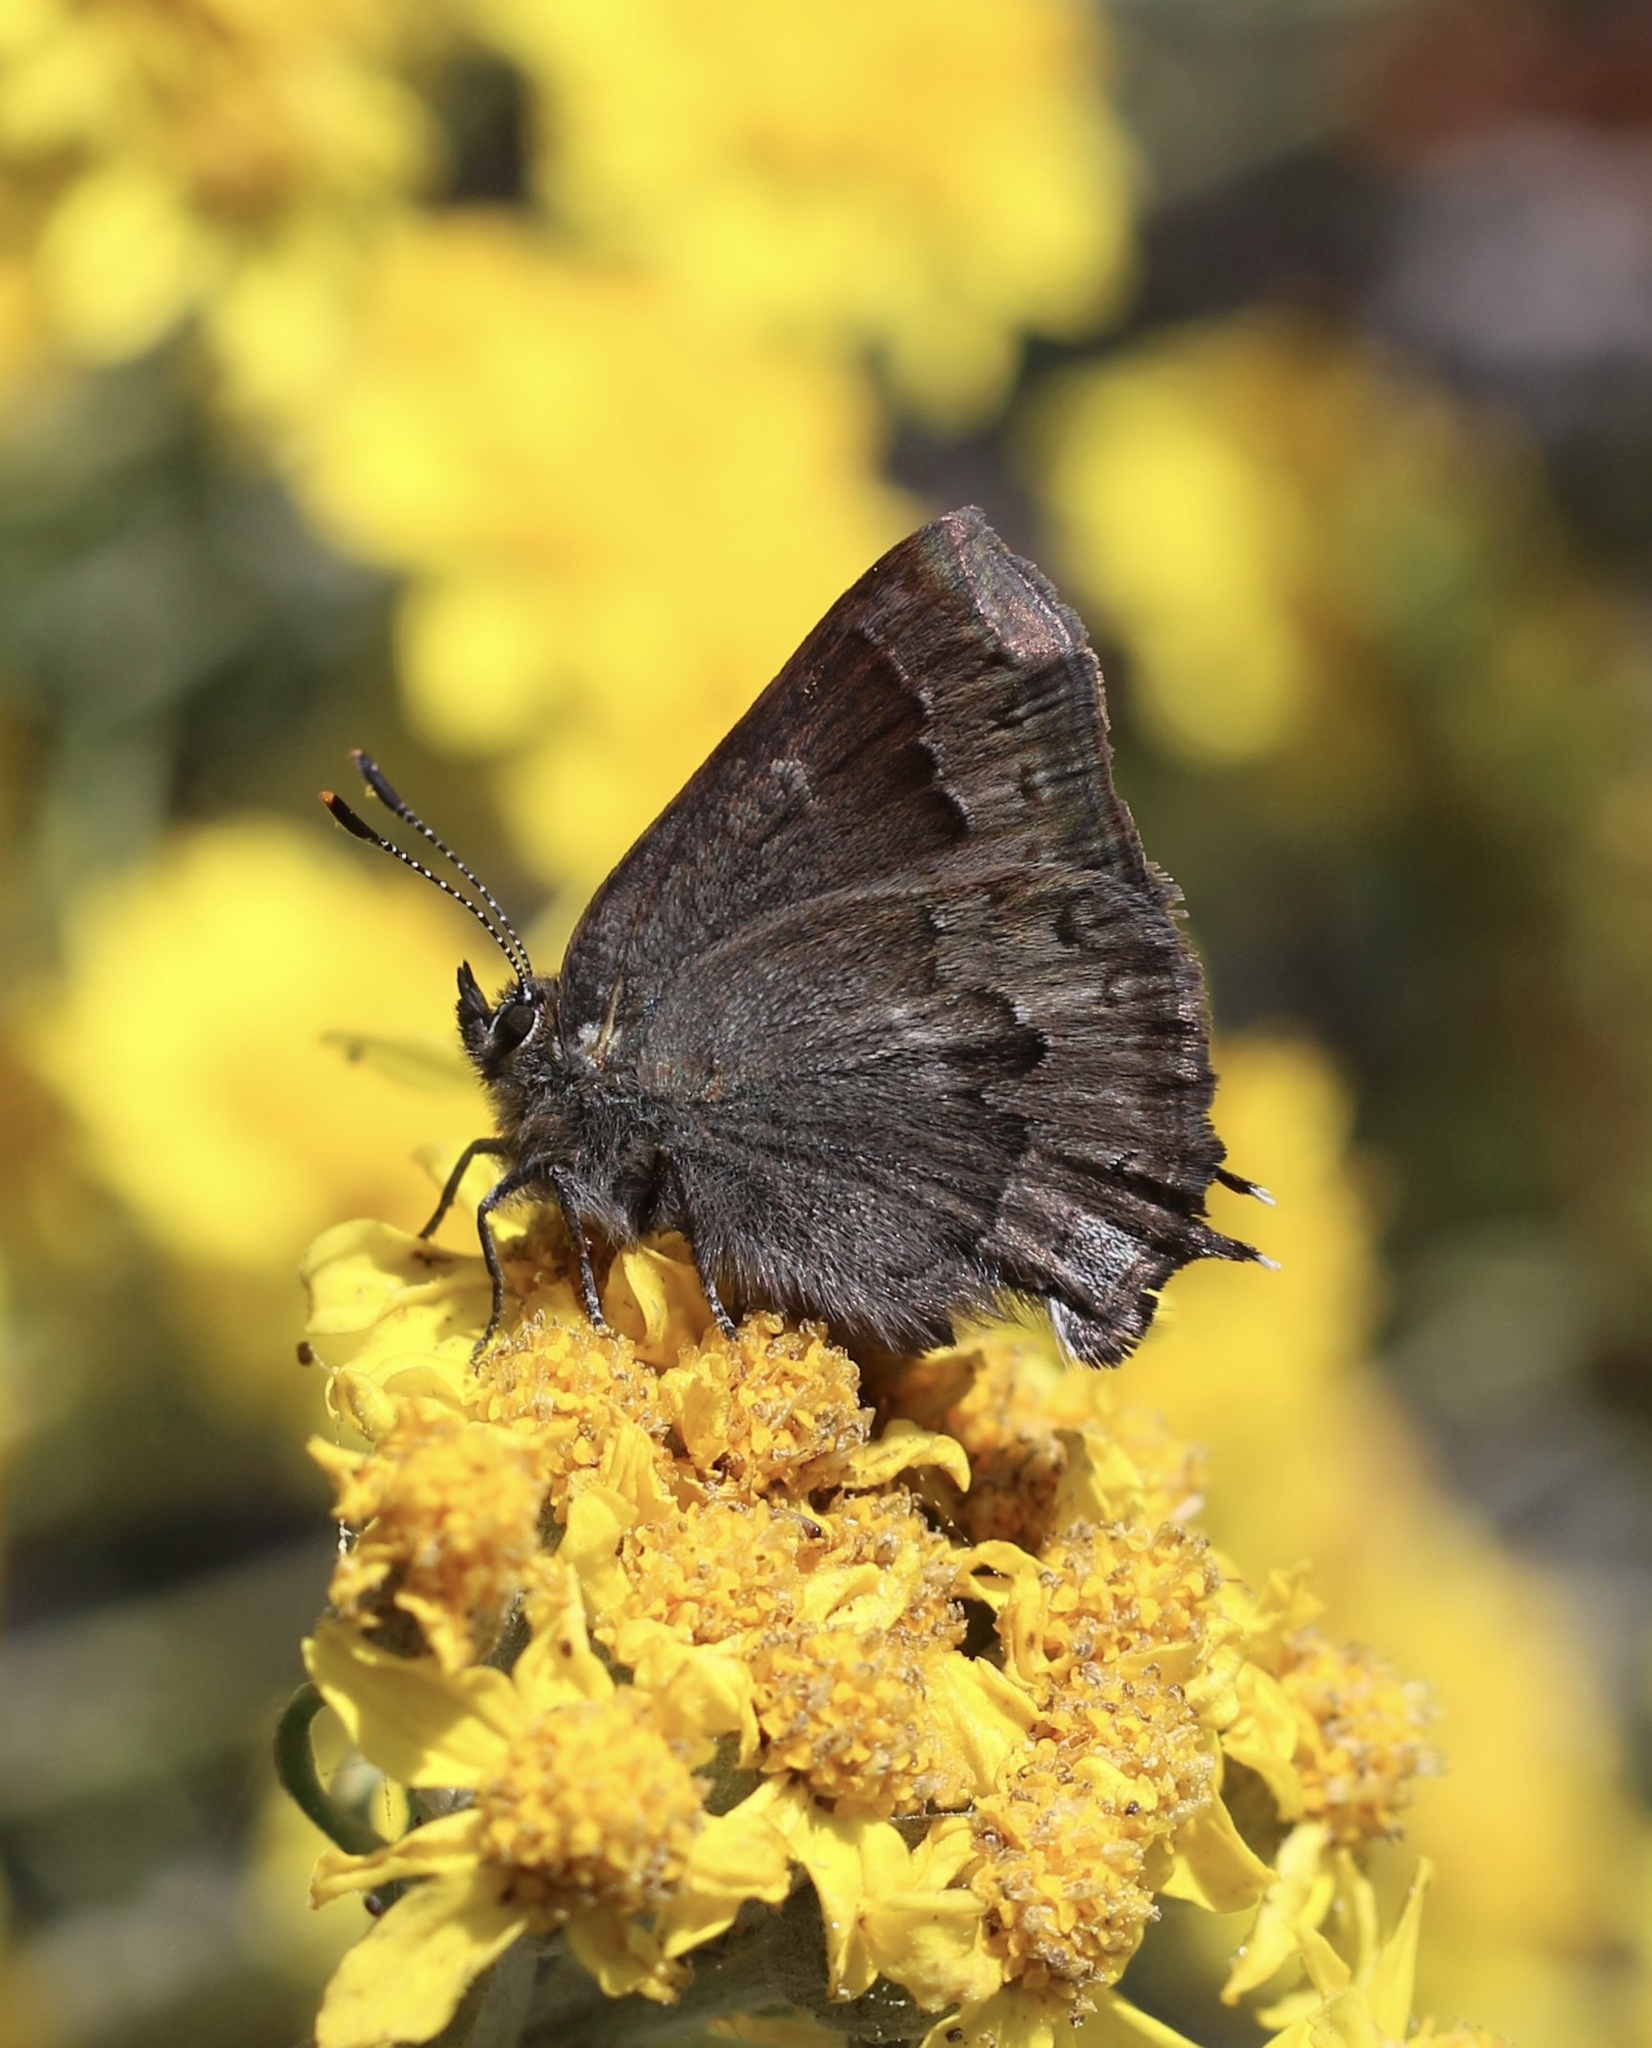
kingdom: Animalia
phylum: Arthropoda
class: Insecta
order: Lepidoptera
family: Lycaenidae
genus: Strymon
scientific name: Strymon saepium
